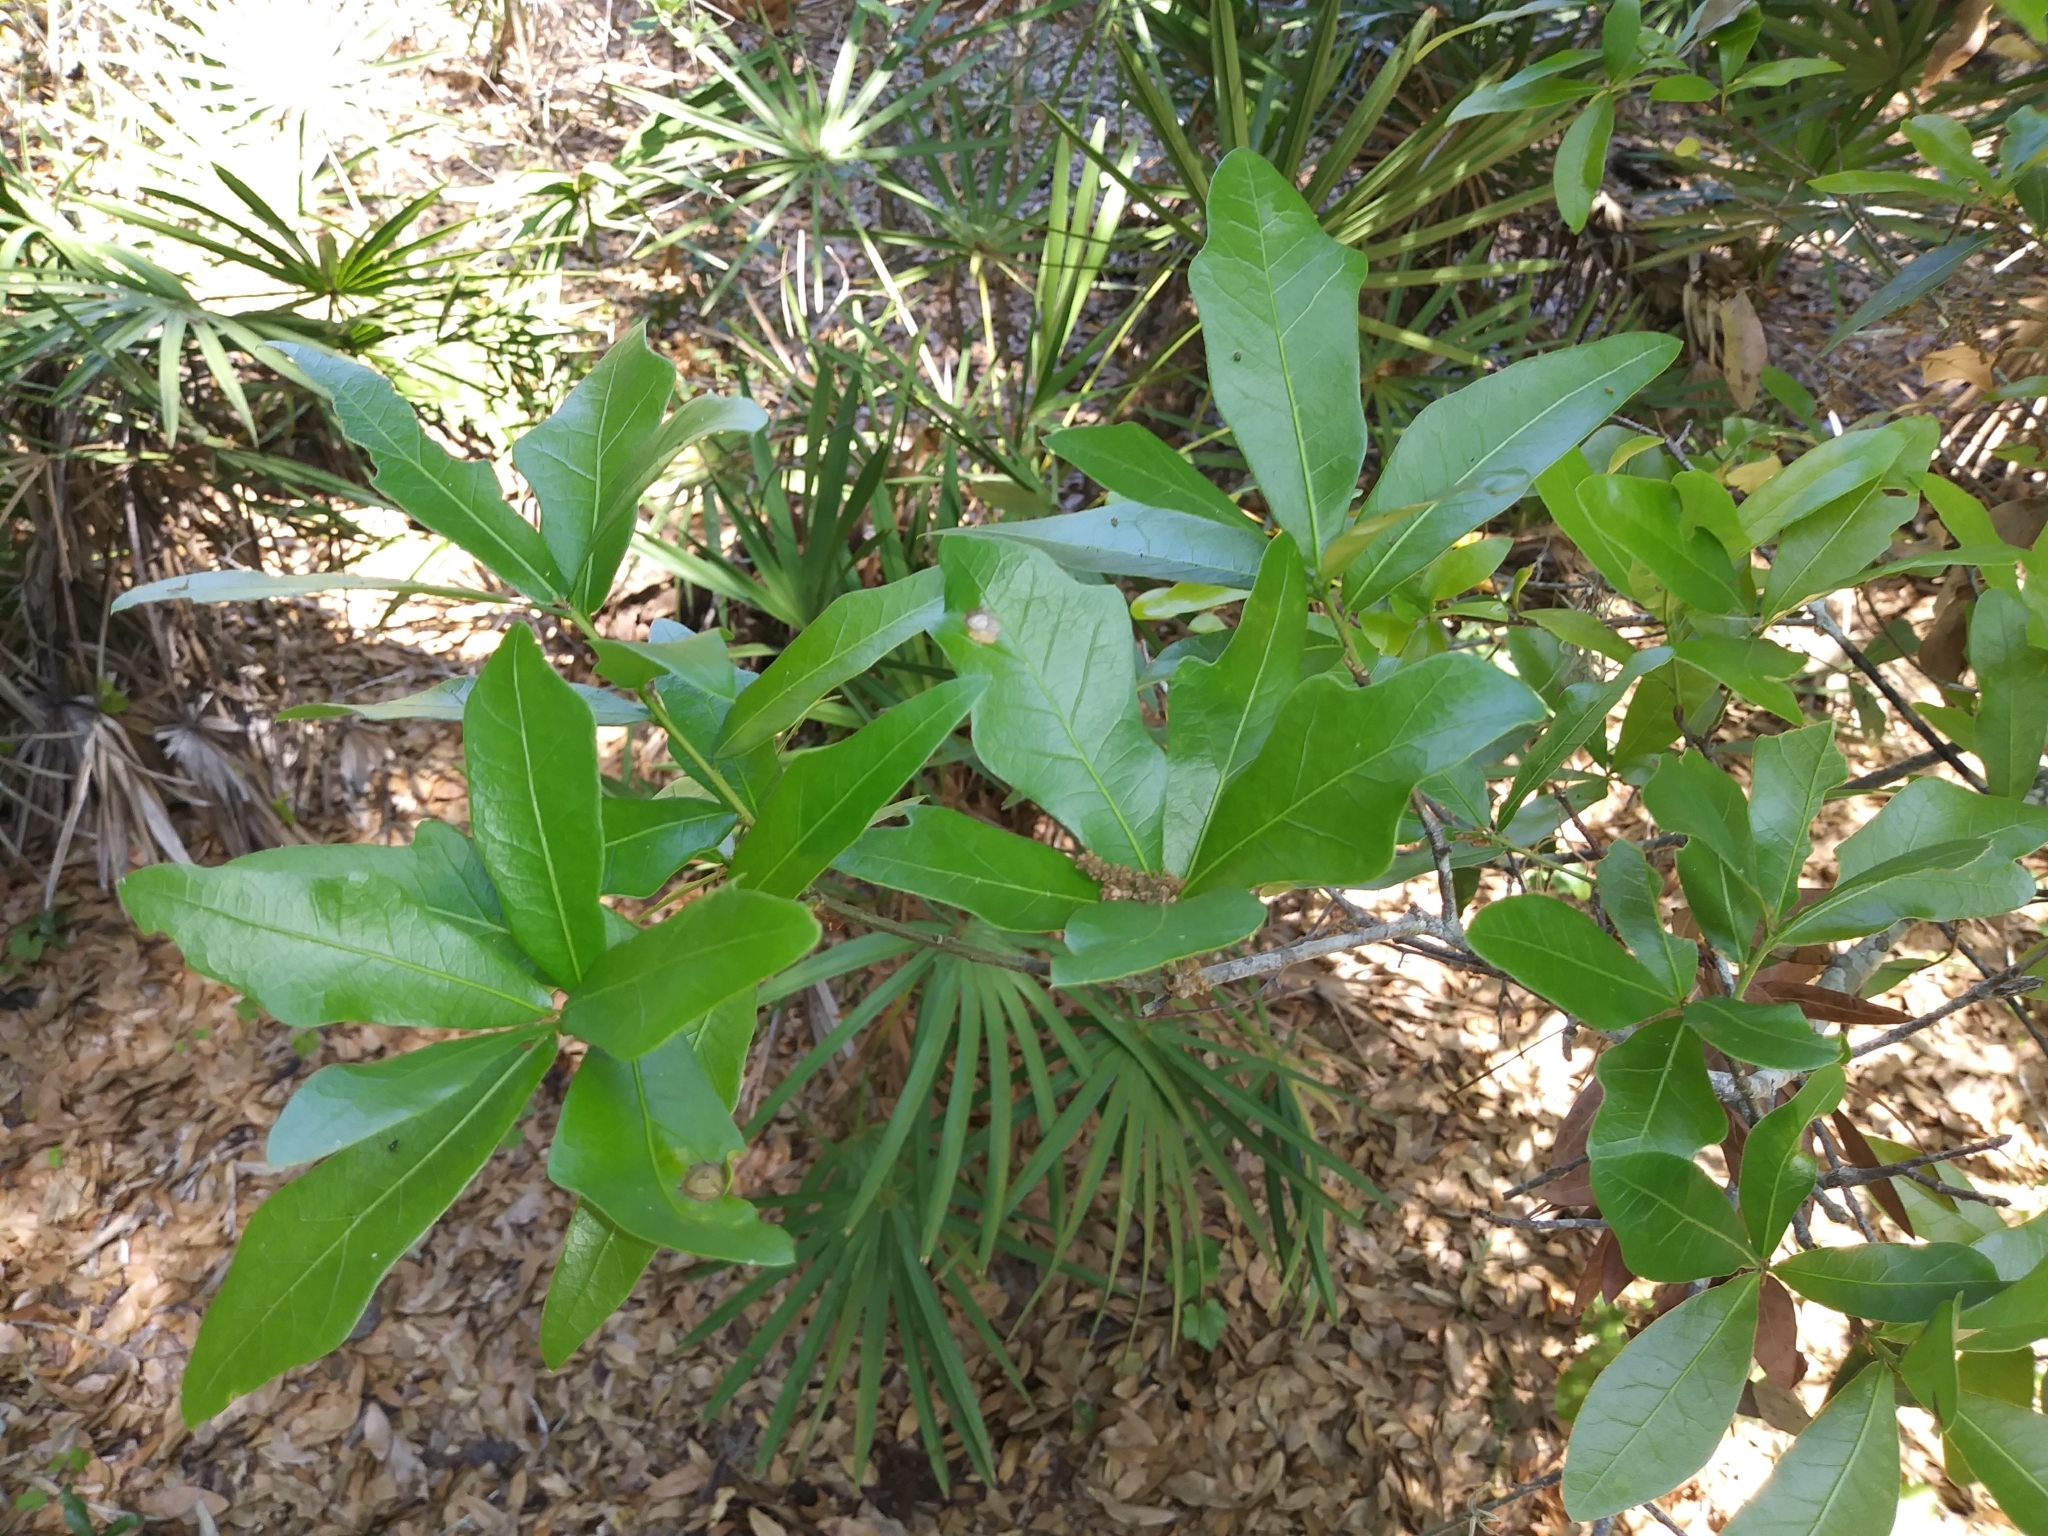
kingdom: Plantae
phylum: Tracheophyta
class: Magnoliopsida
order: Fagales
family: Fagaceae
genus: Quercus
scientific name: Quercus hemisphaerica
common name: Darlington oak
